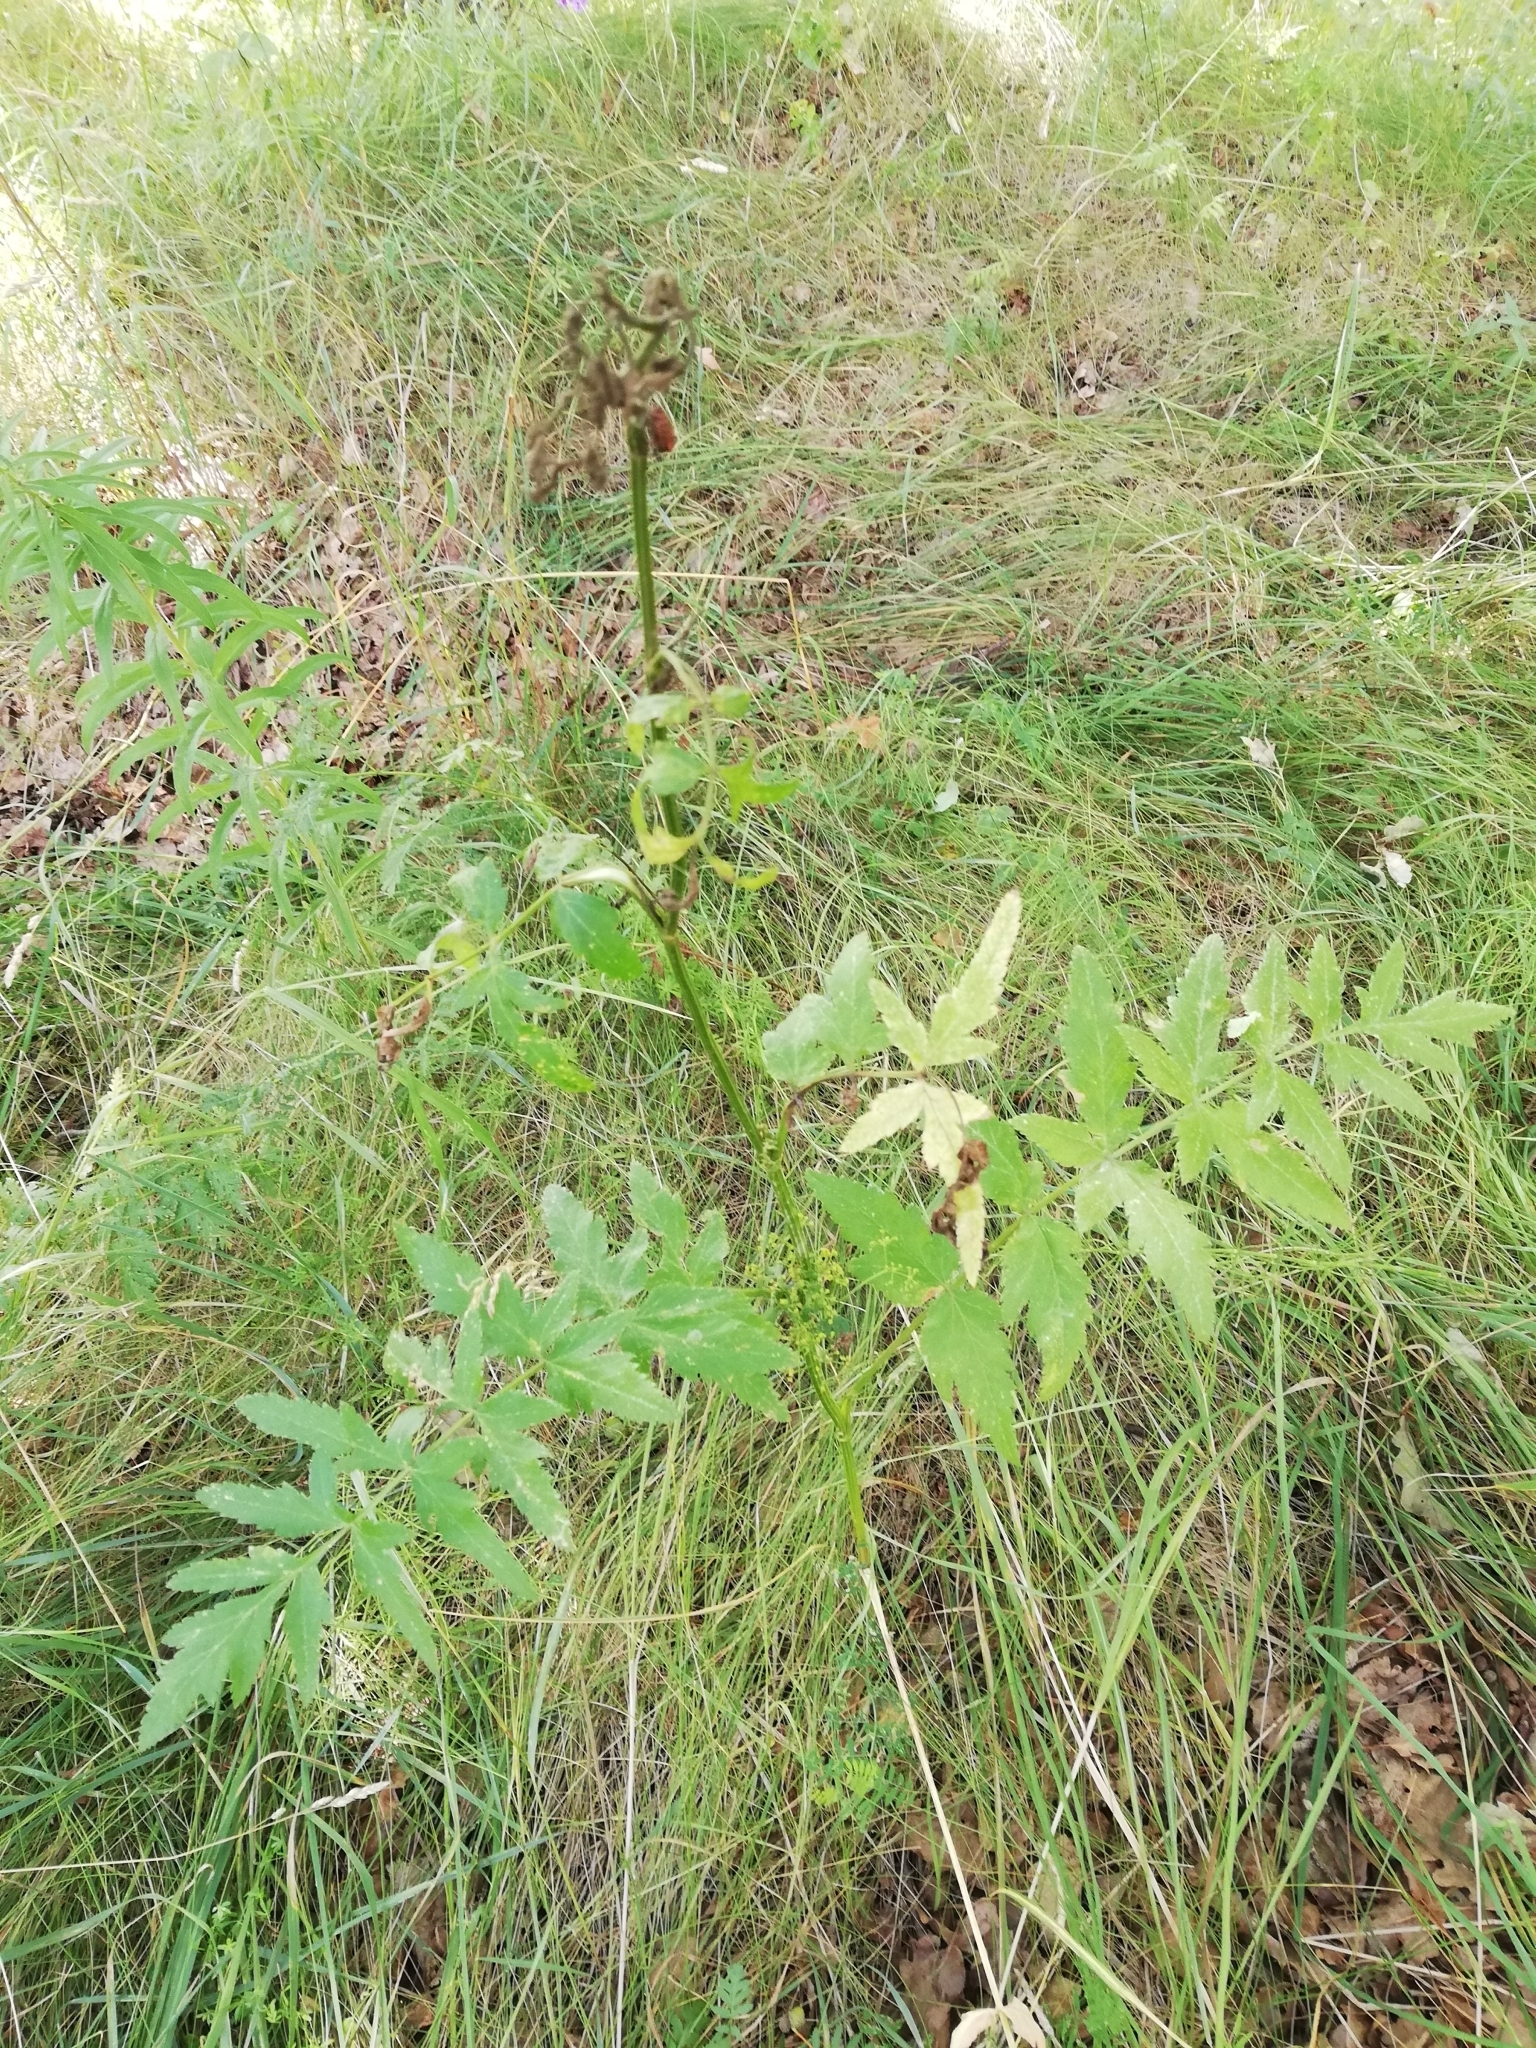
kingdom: Plantae
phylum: Tracheophyta
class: Magnoliopsida
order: Apiales
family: Apiaceae
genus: Pastinaca
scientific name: Pastinaca sativa
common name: Wild parsnip
